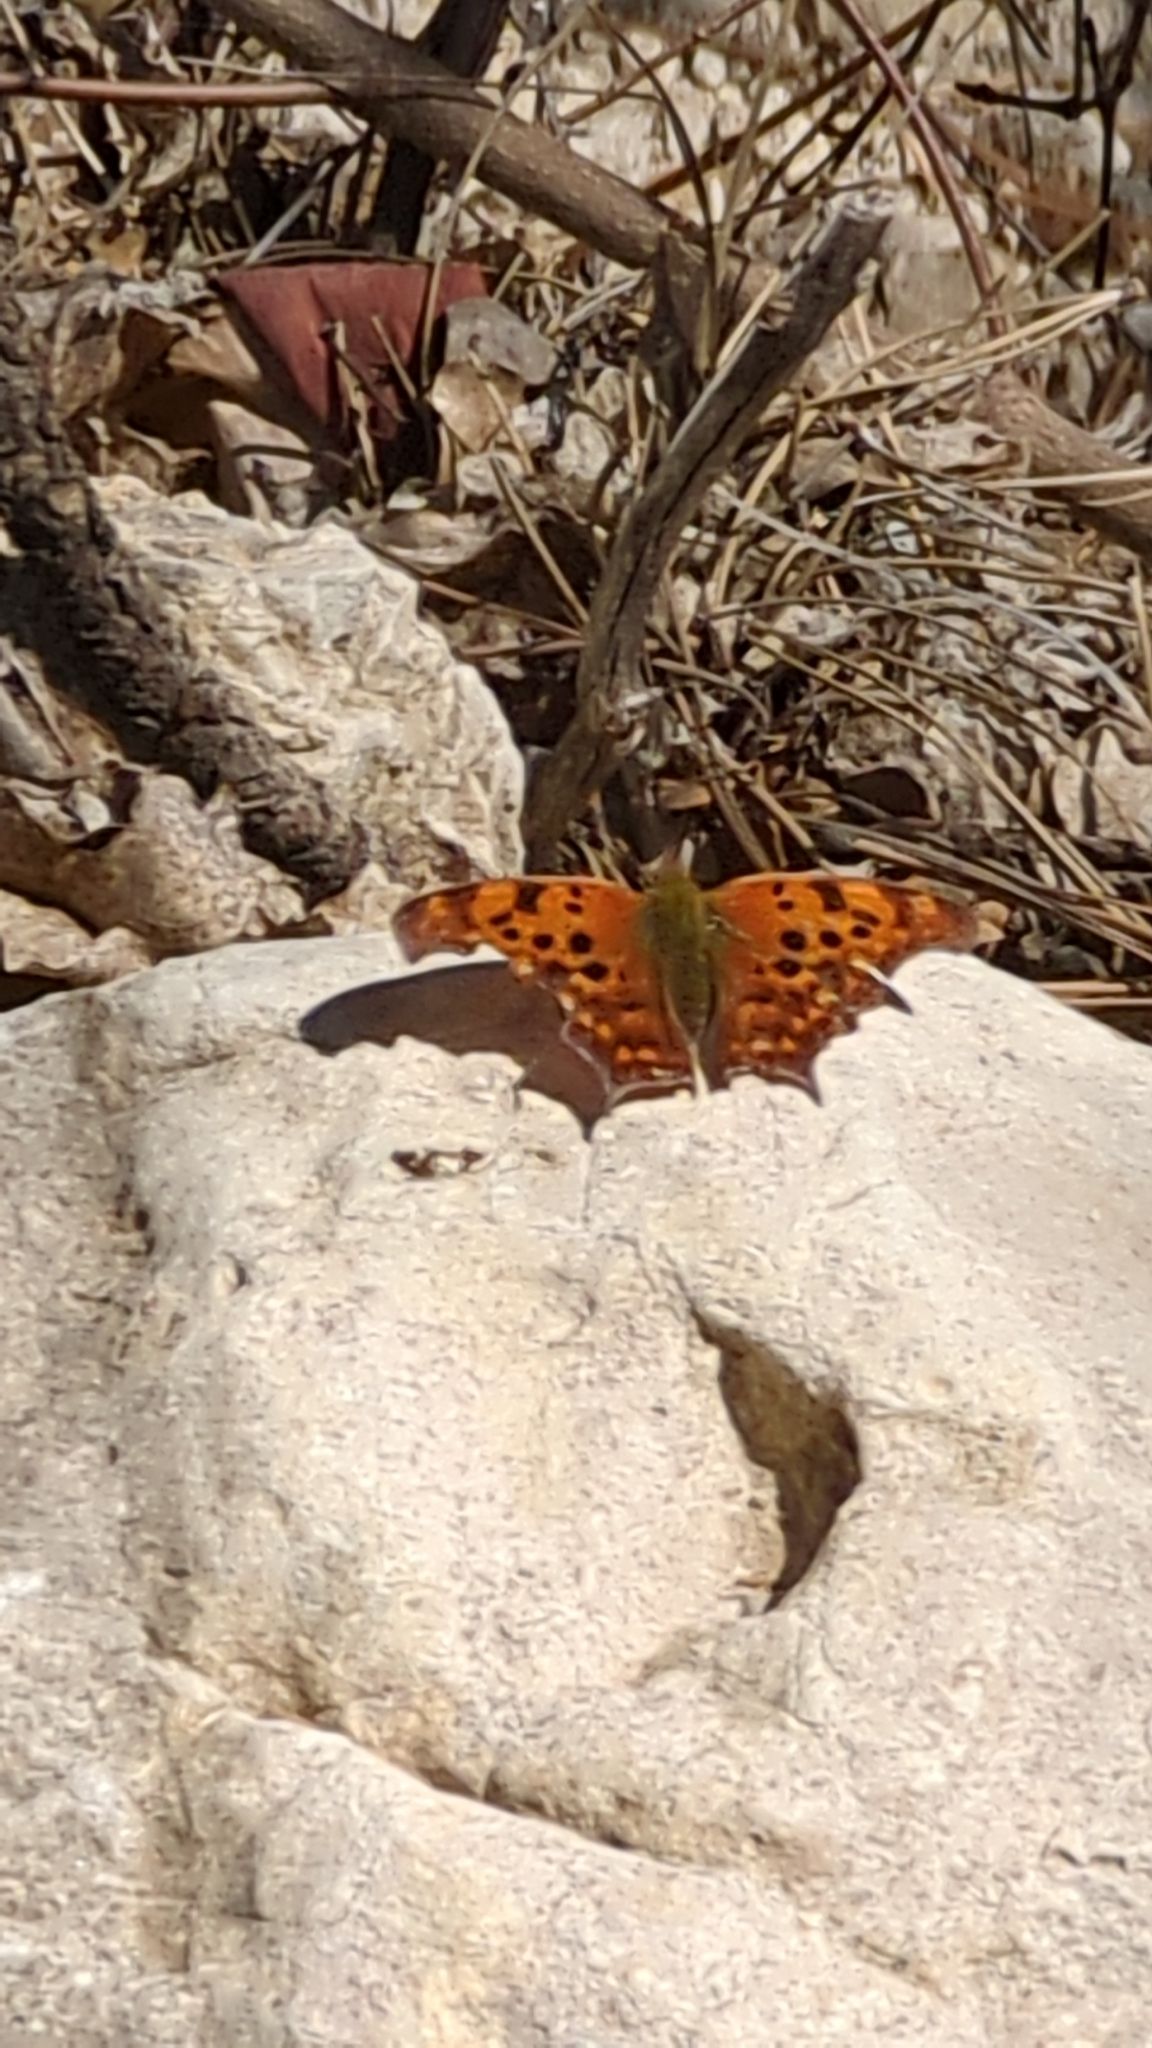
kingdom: Animalia
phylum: Arthropoda
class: Insecta
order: Lepidoptera
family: Nymphalidae
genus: Polygonia
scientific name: Polygonia interrogationis
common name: Question mark
